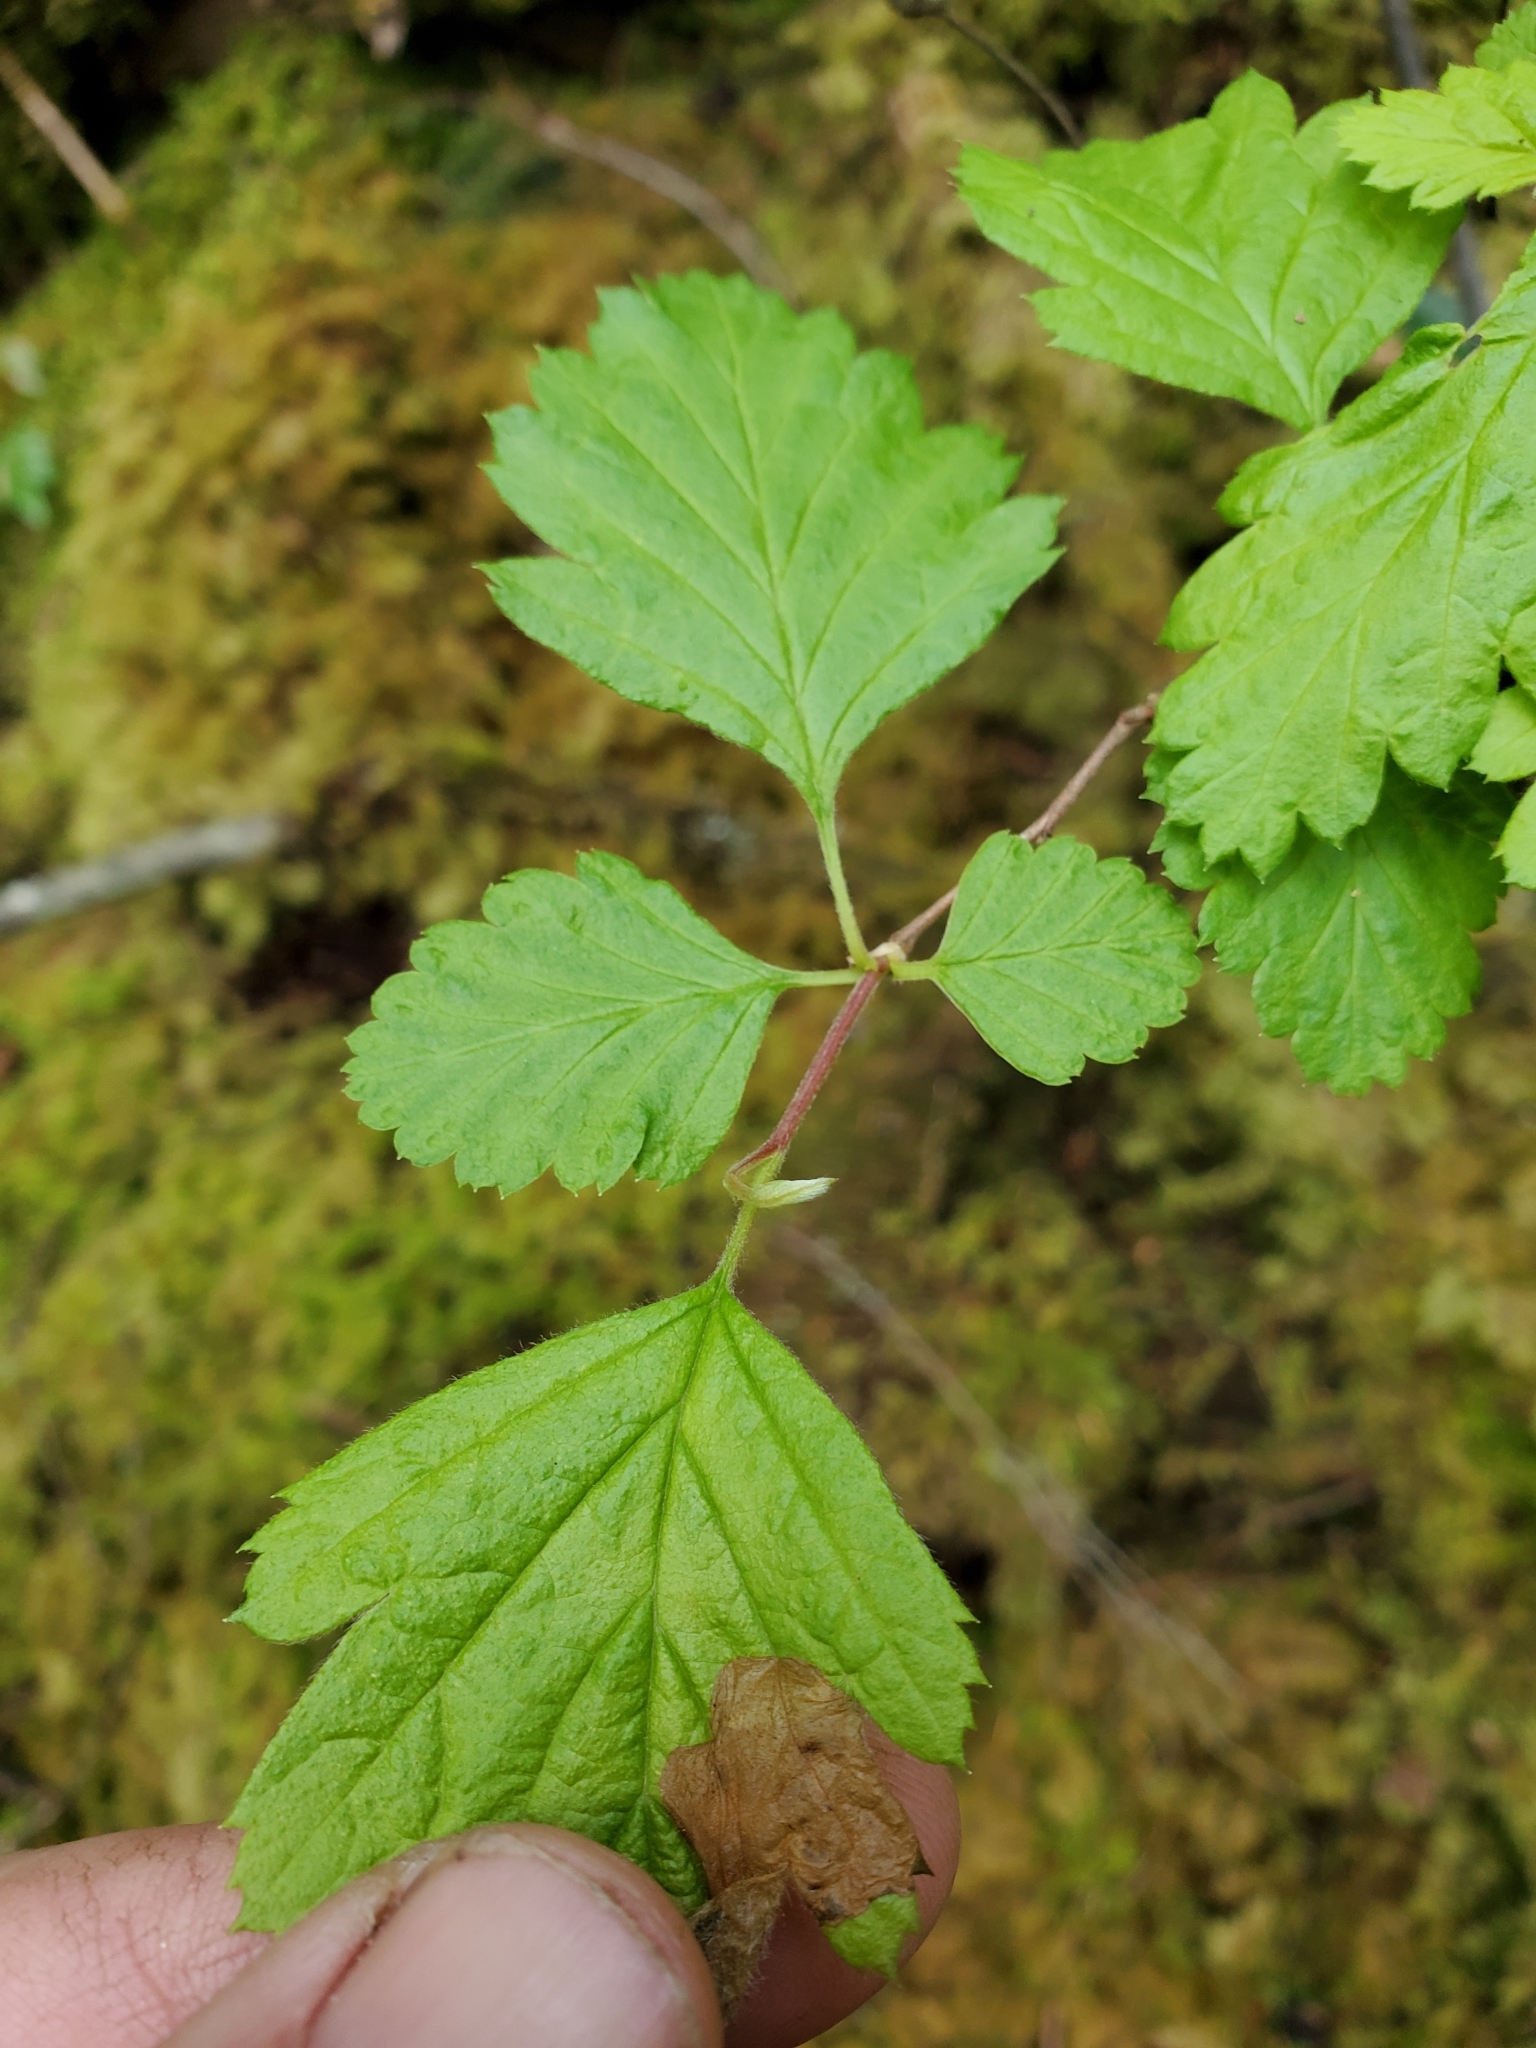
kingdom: Plantae
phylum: Tracheophyta
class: Magnoliopsida
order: Rosales
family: Rosaceae
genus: Holodiscus
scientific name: Holodiscus discolor
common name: Oceanspray
